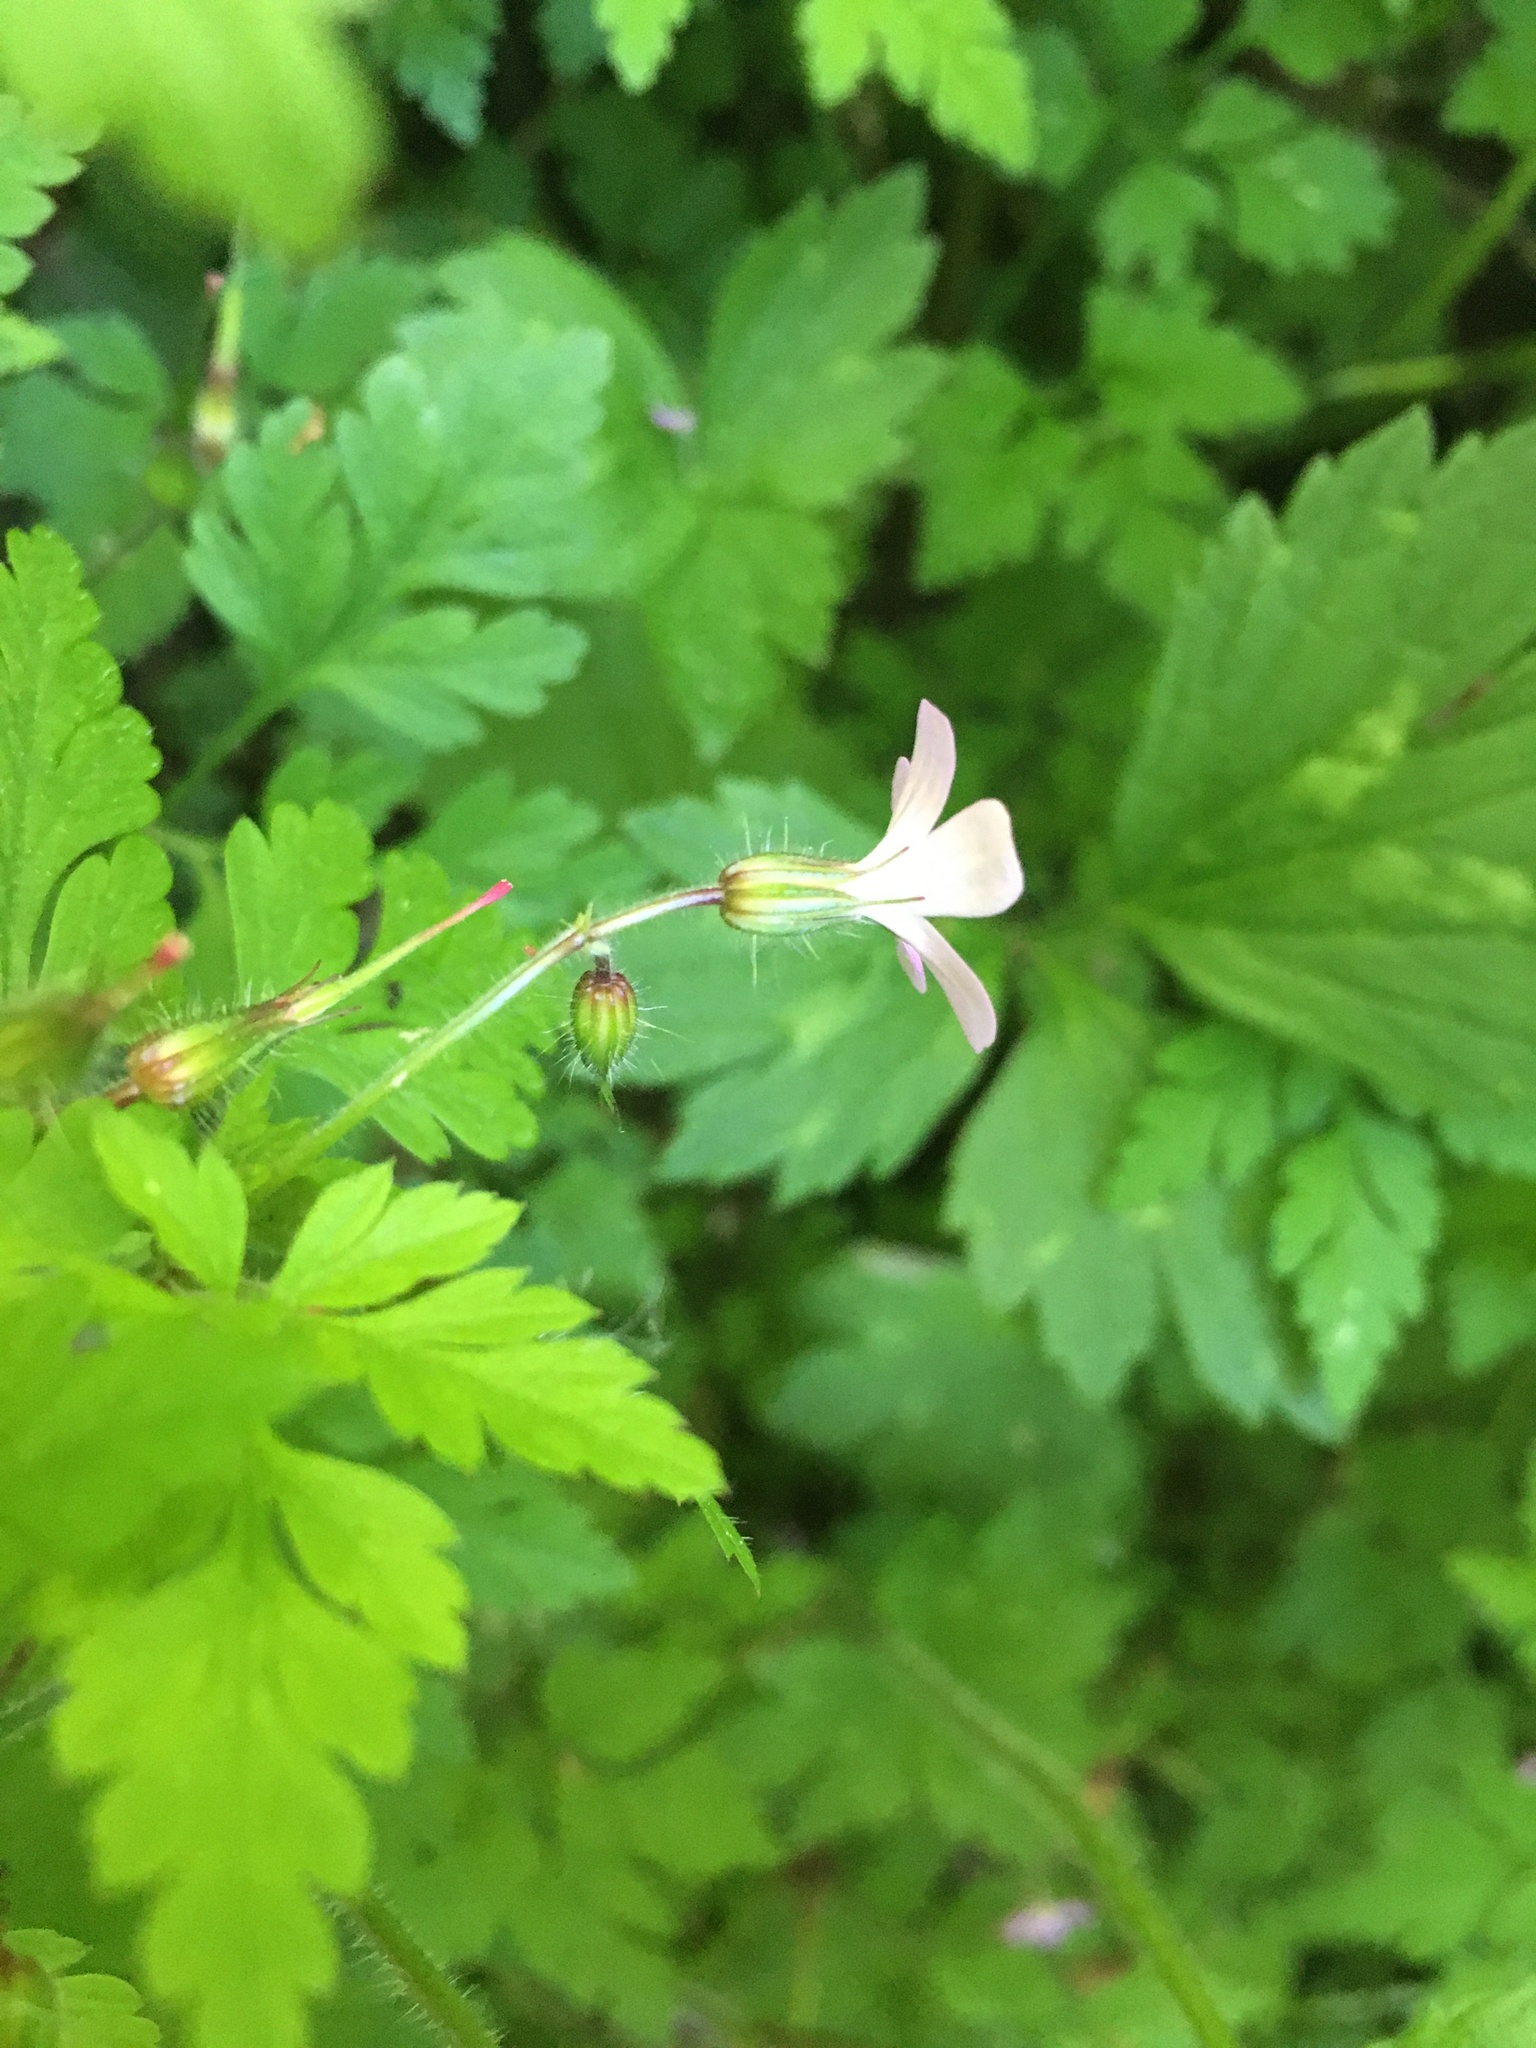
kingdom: Plantae
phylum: Tracheophyta
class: Magnoliopsida
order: Geraniales
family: Geraniaceae
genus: Geranium
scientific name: Geranium robertianum
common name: Herb-robert
